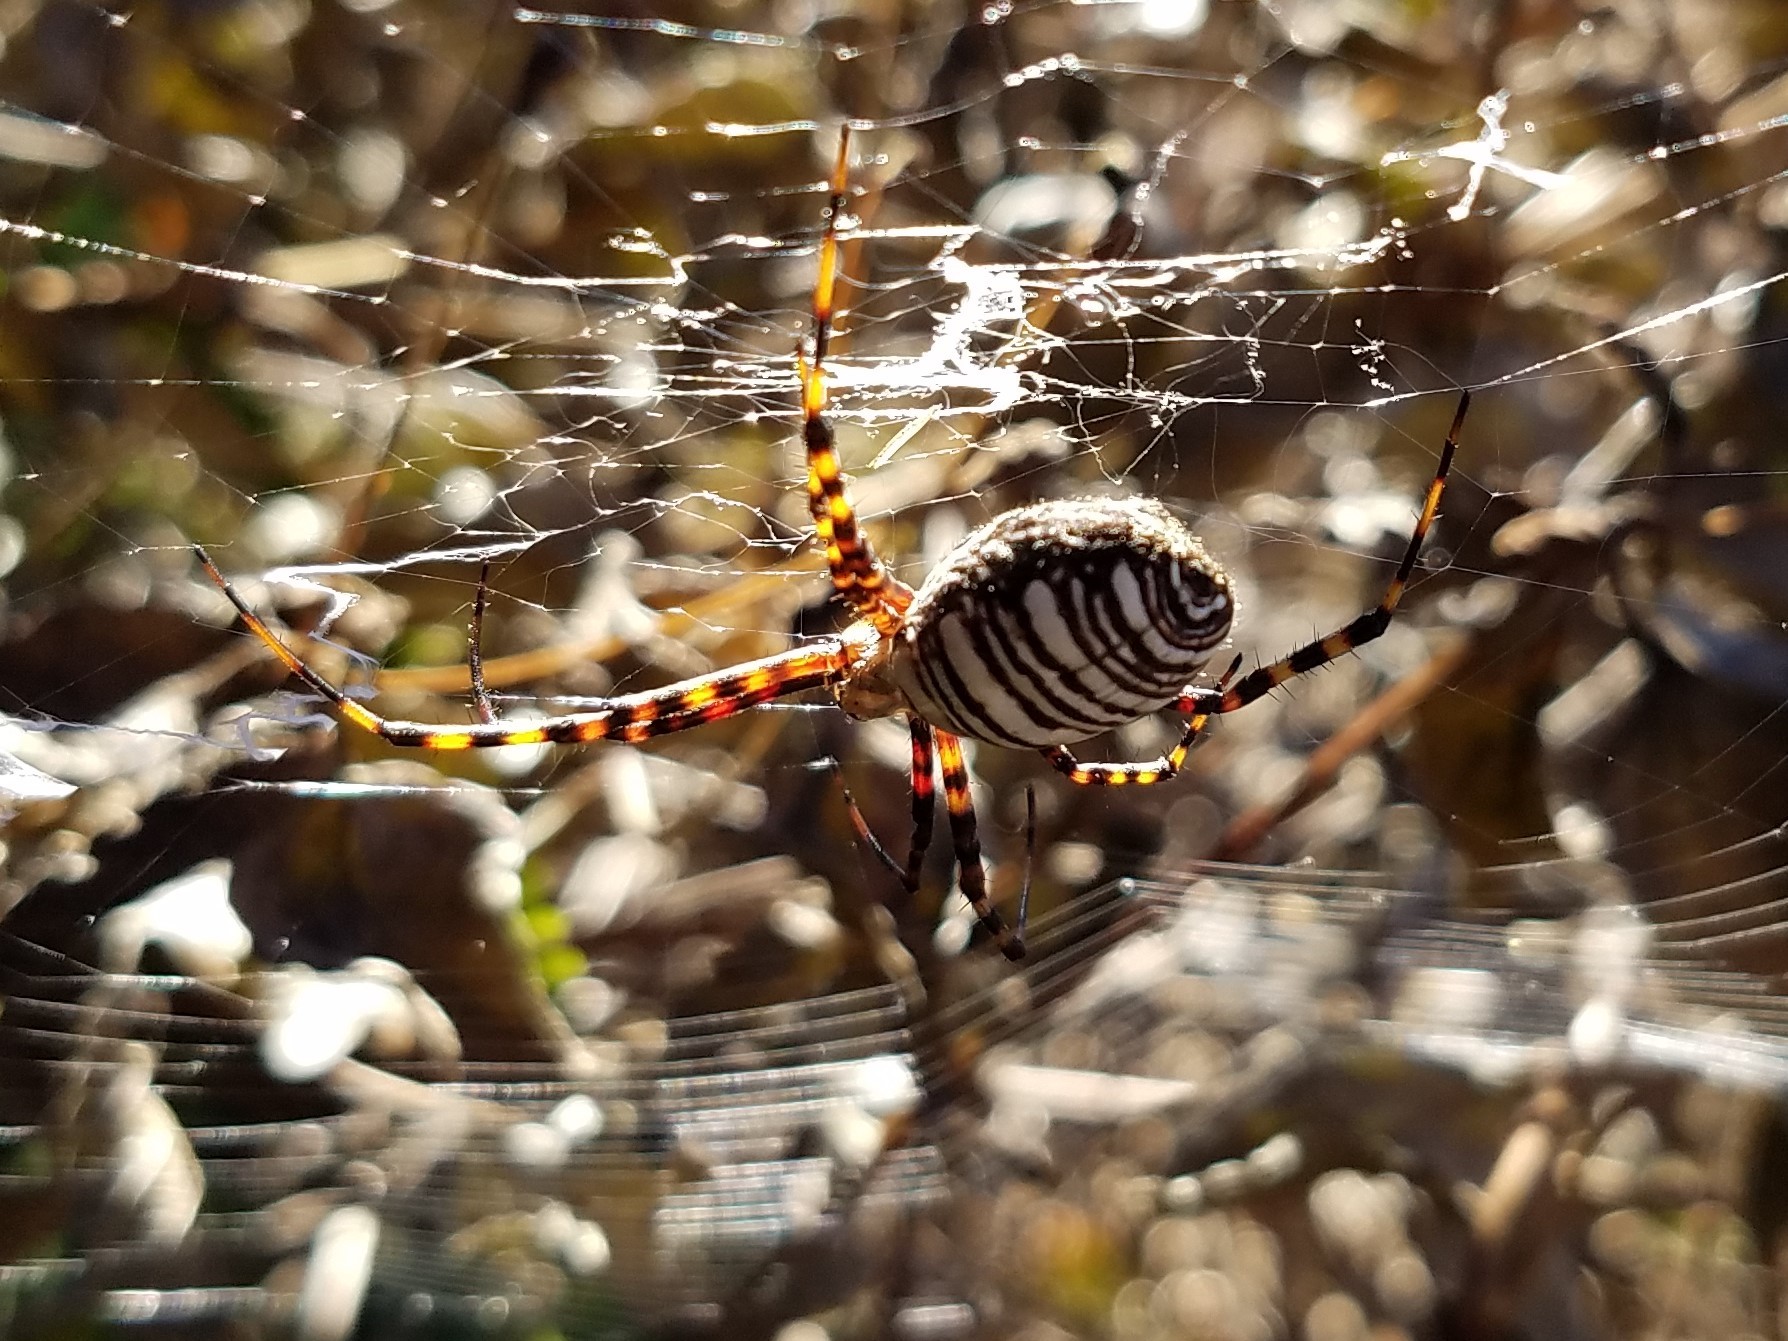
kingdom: Animalia
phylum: Arthropoda
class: Arachnida
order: Araneae
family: Araneidae
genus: Argiope
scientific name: Argiope trifasciata
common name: Banded garden spider
